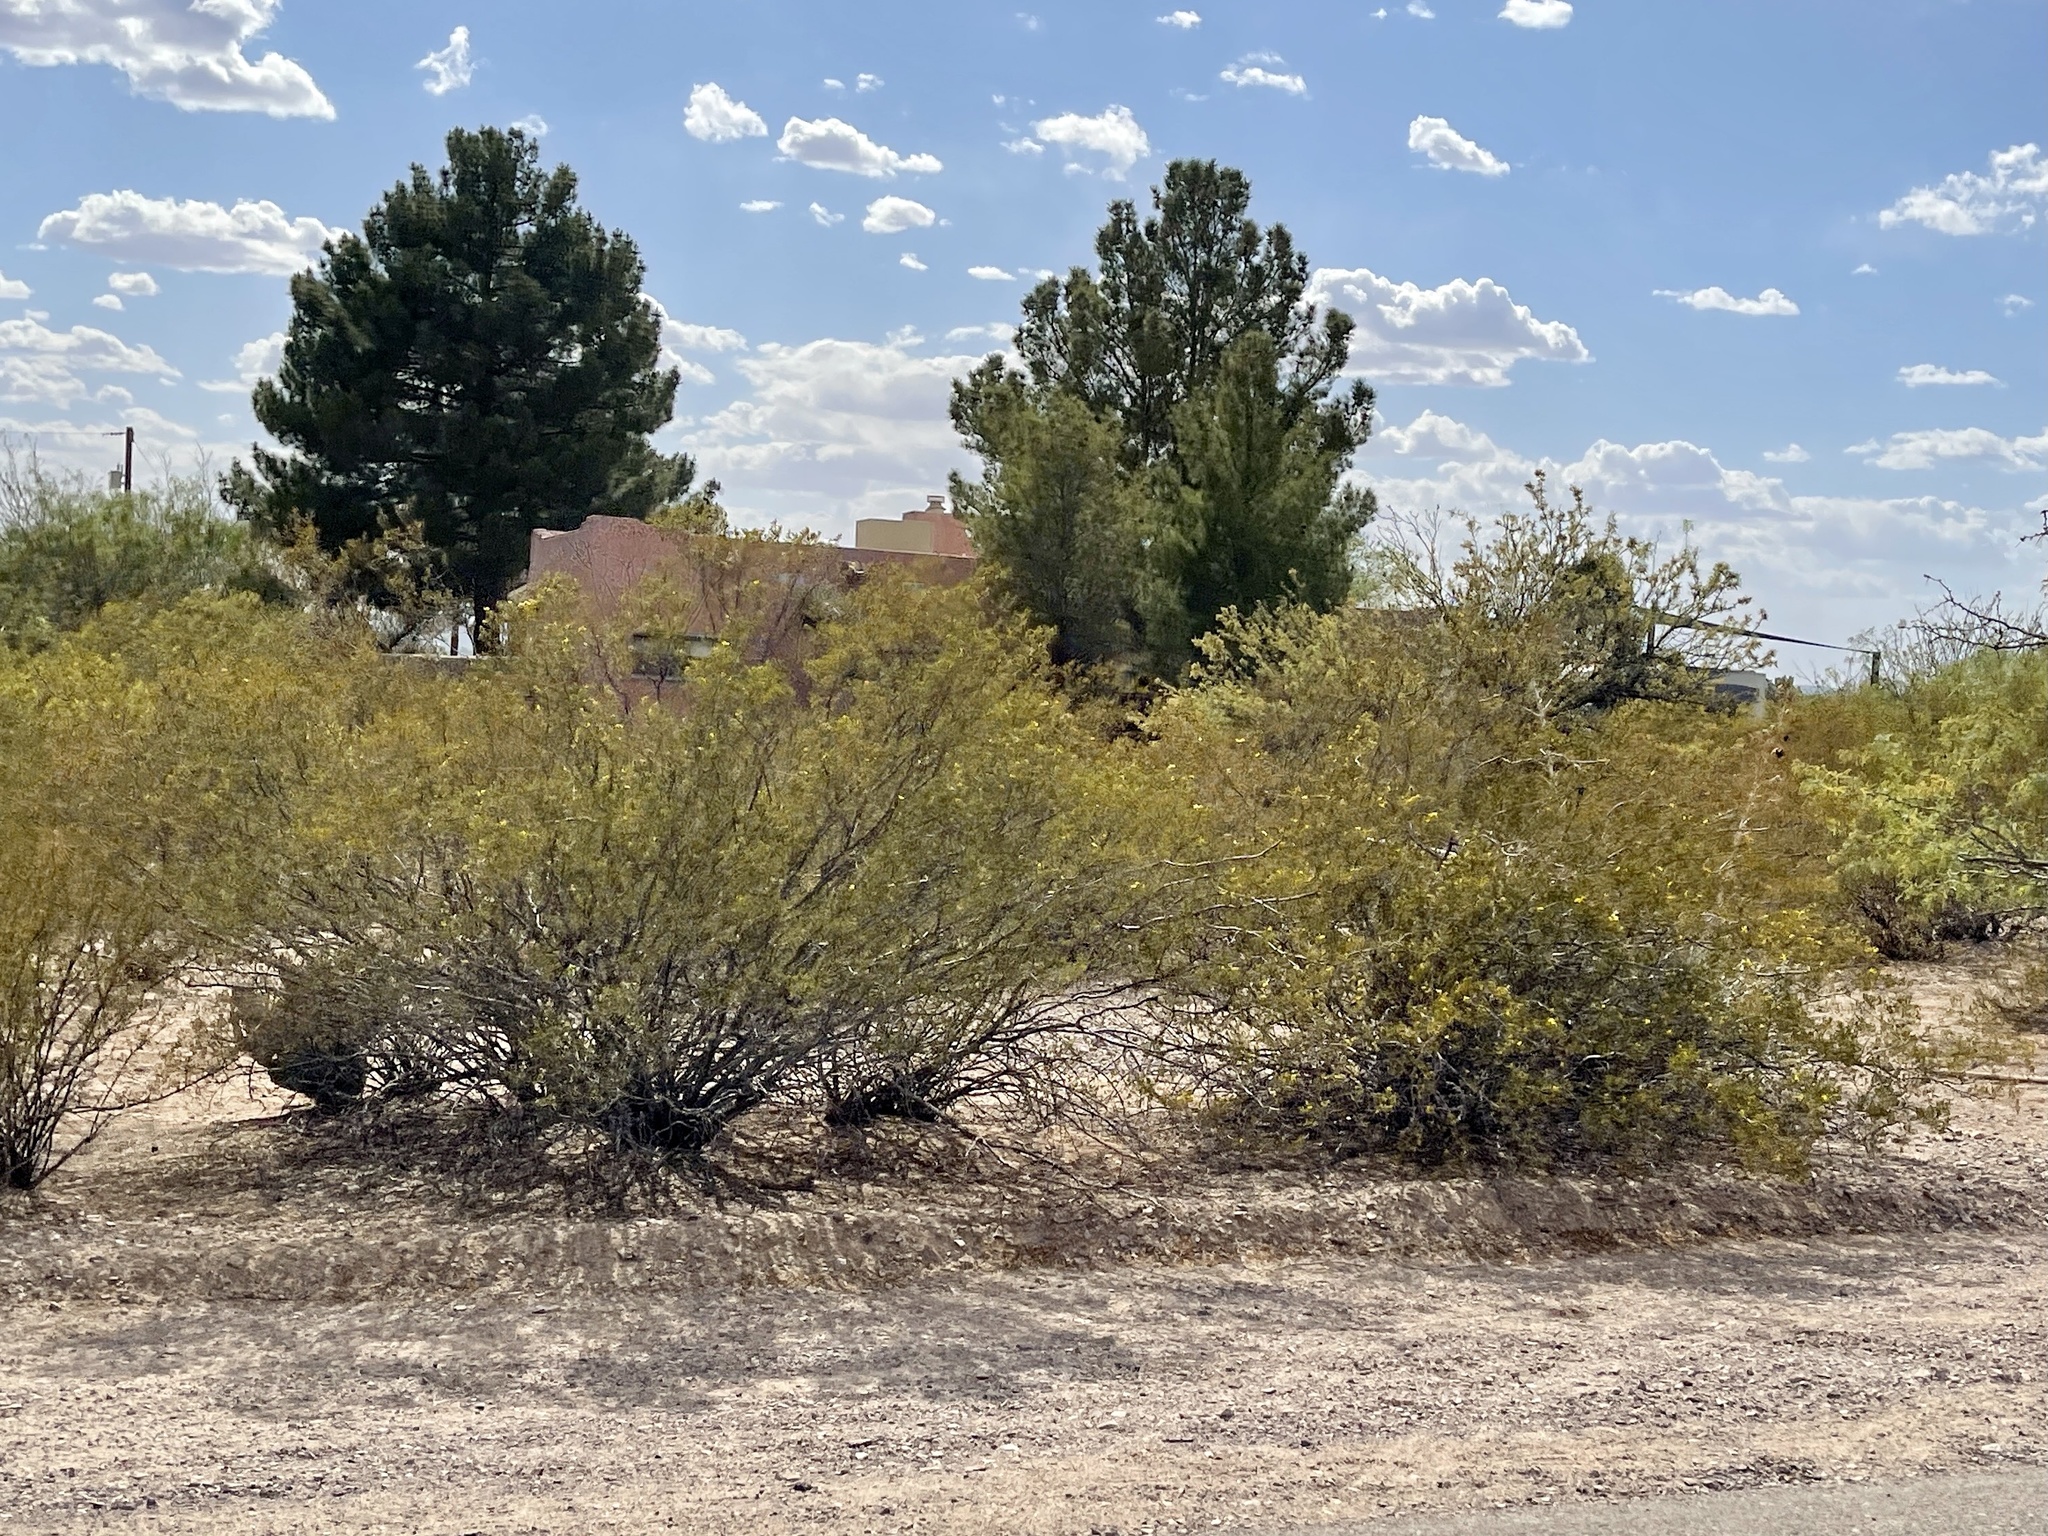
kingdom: Plantae
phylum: Tracheophyta
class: Magnoliopsida
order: Zygophyllales
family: Zygophyllaceae
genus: Larrea
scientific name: Larrea tridentata
